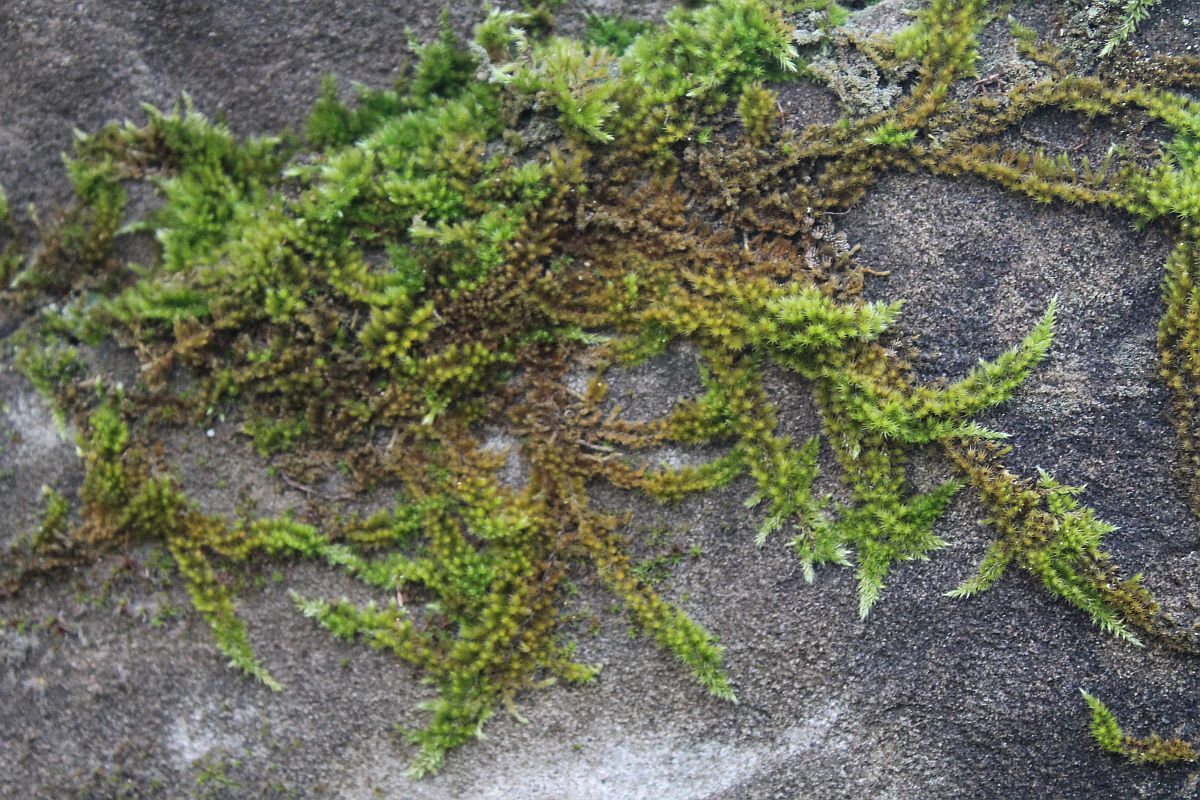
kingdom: Plantae
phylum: Bryophyta
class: Bryopsida
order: Hypnales
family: Brachytheciaceae
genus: Homalothecium
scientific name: Homalothecium sericeum
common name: Silky wall feather-moss
